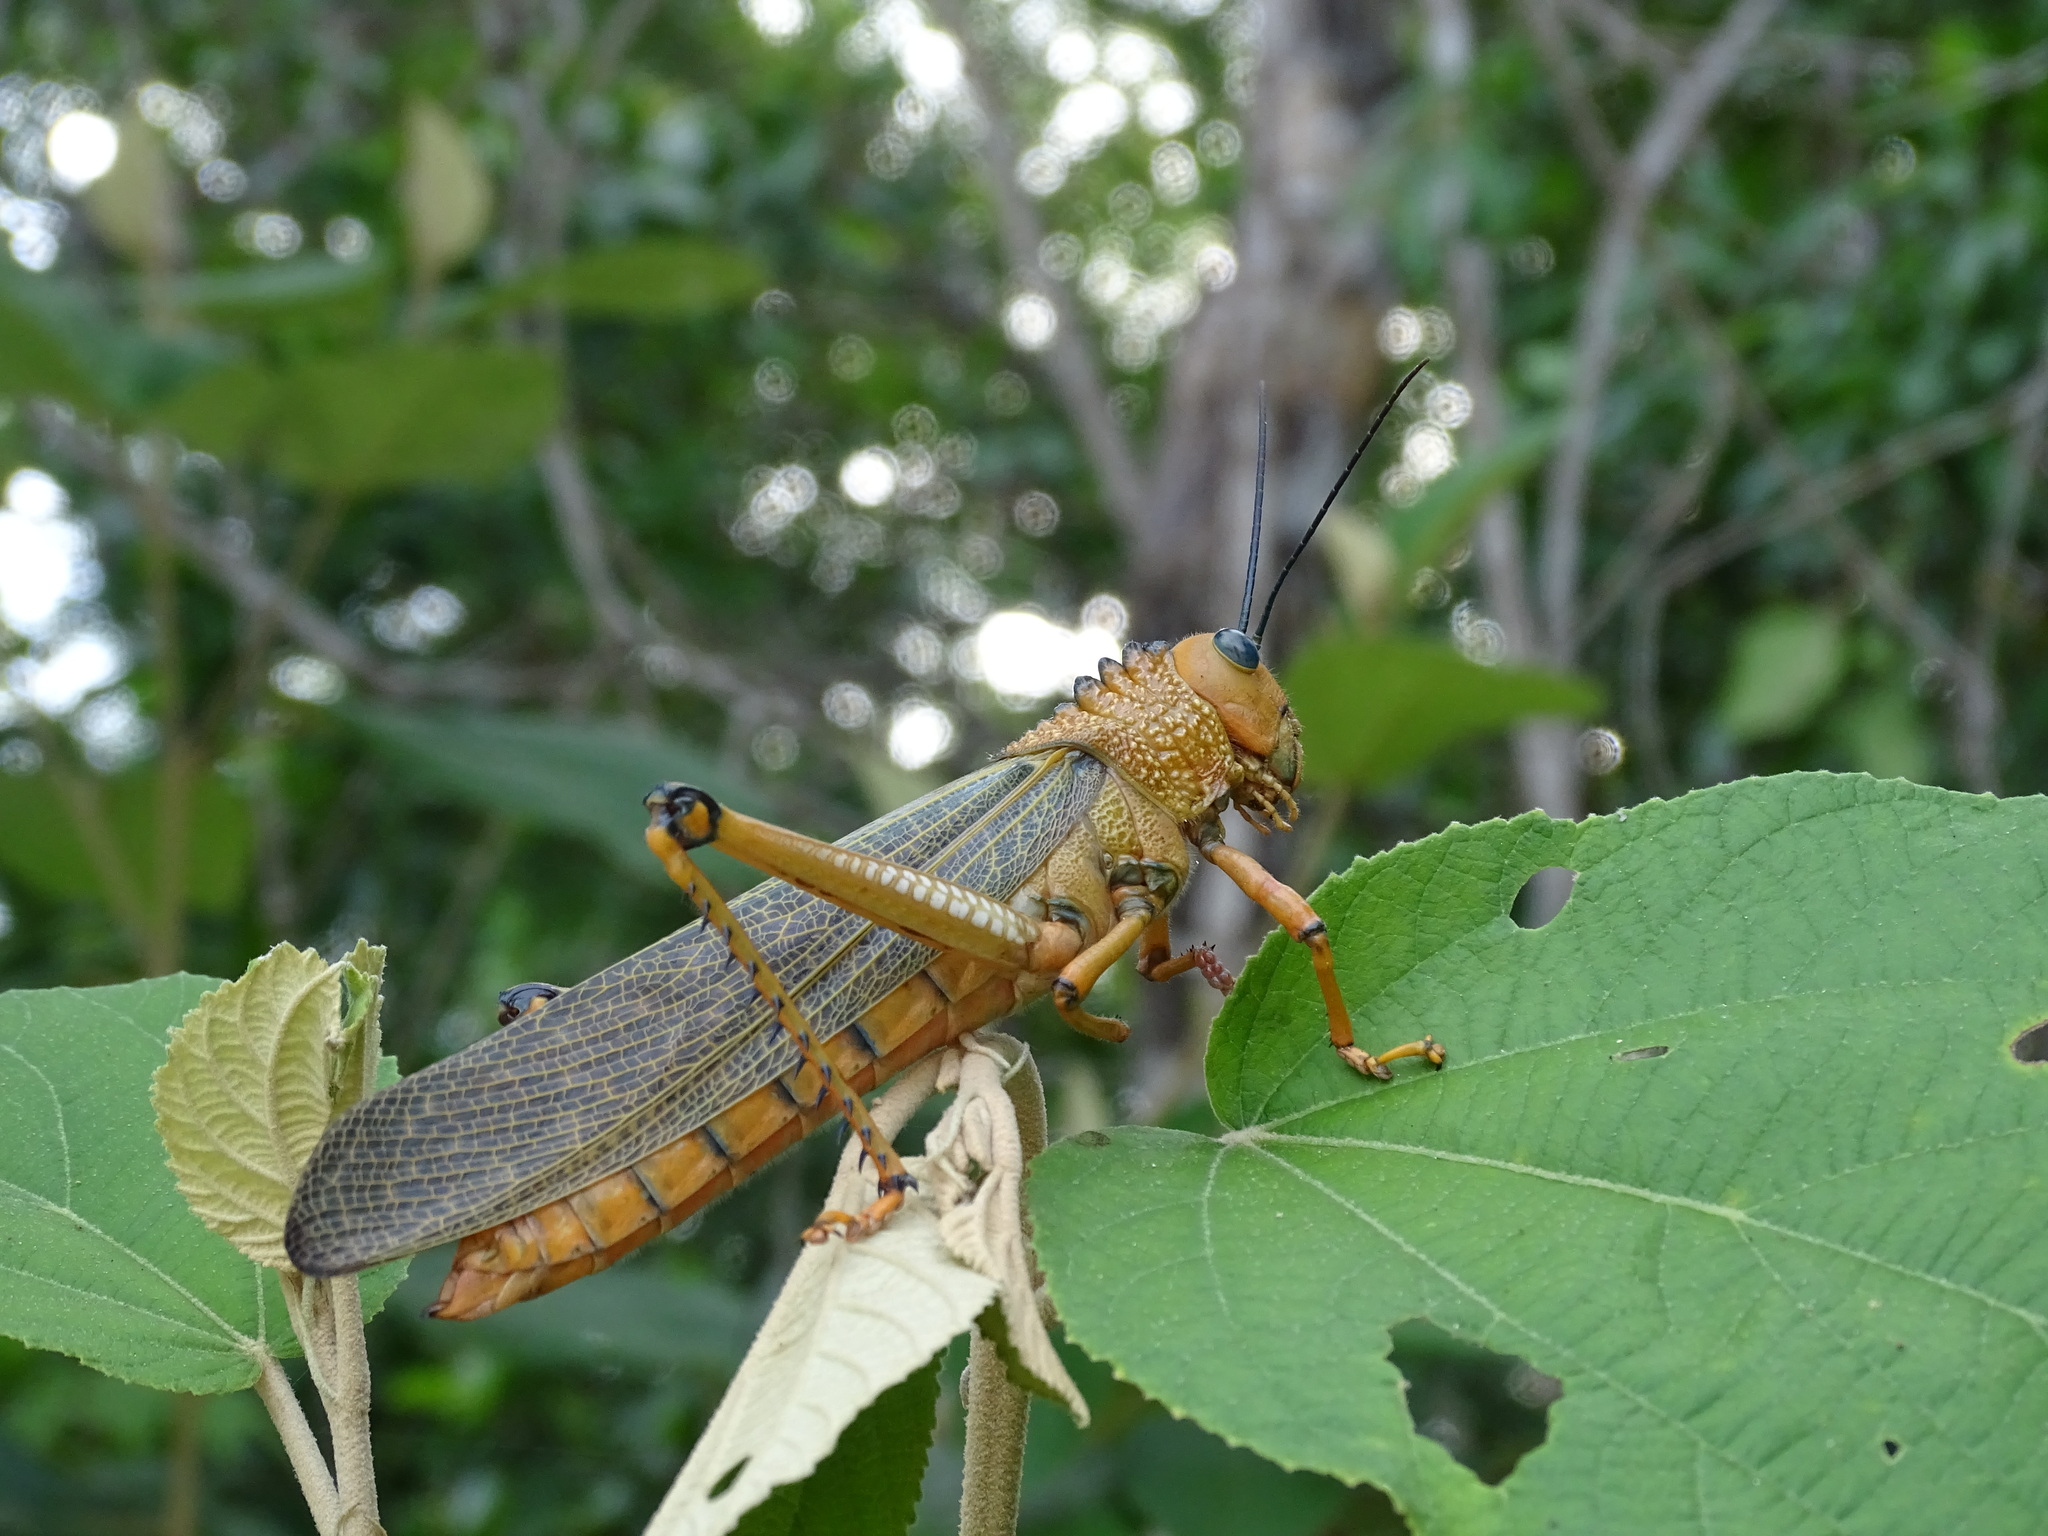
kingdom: Animalia
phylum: Arthropoda
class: Insecta
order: Orthoptera
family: Romaleidae
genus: Tropidacris
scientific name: Tropidacris cristata
